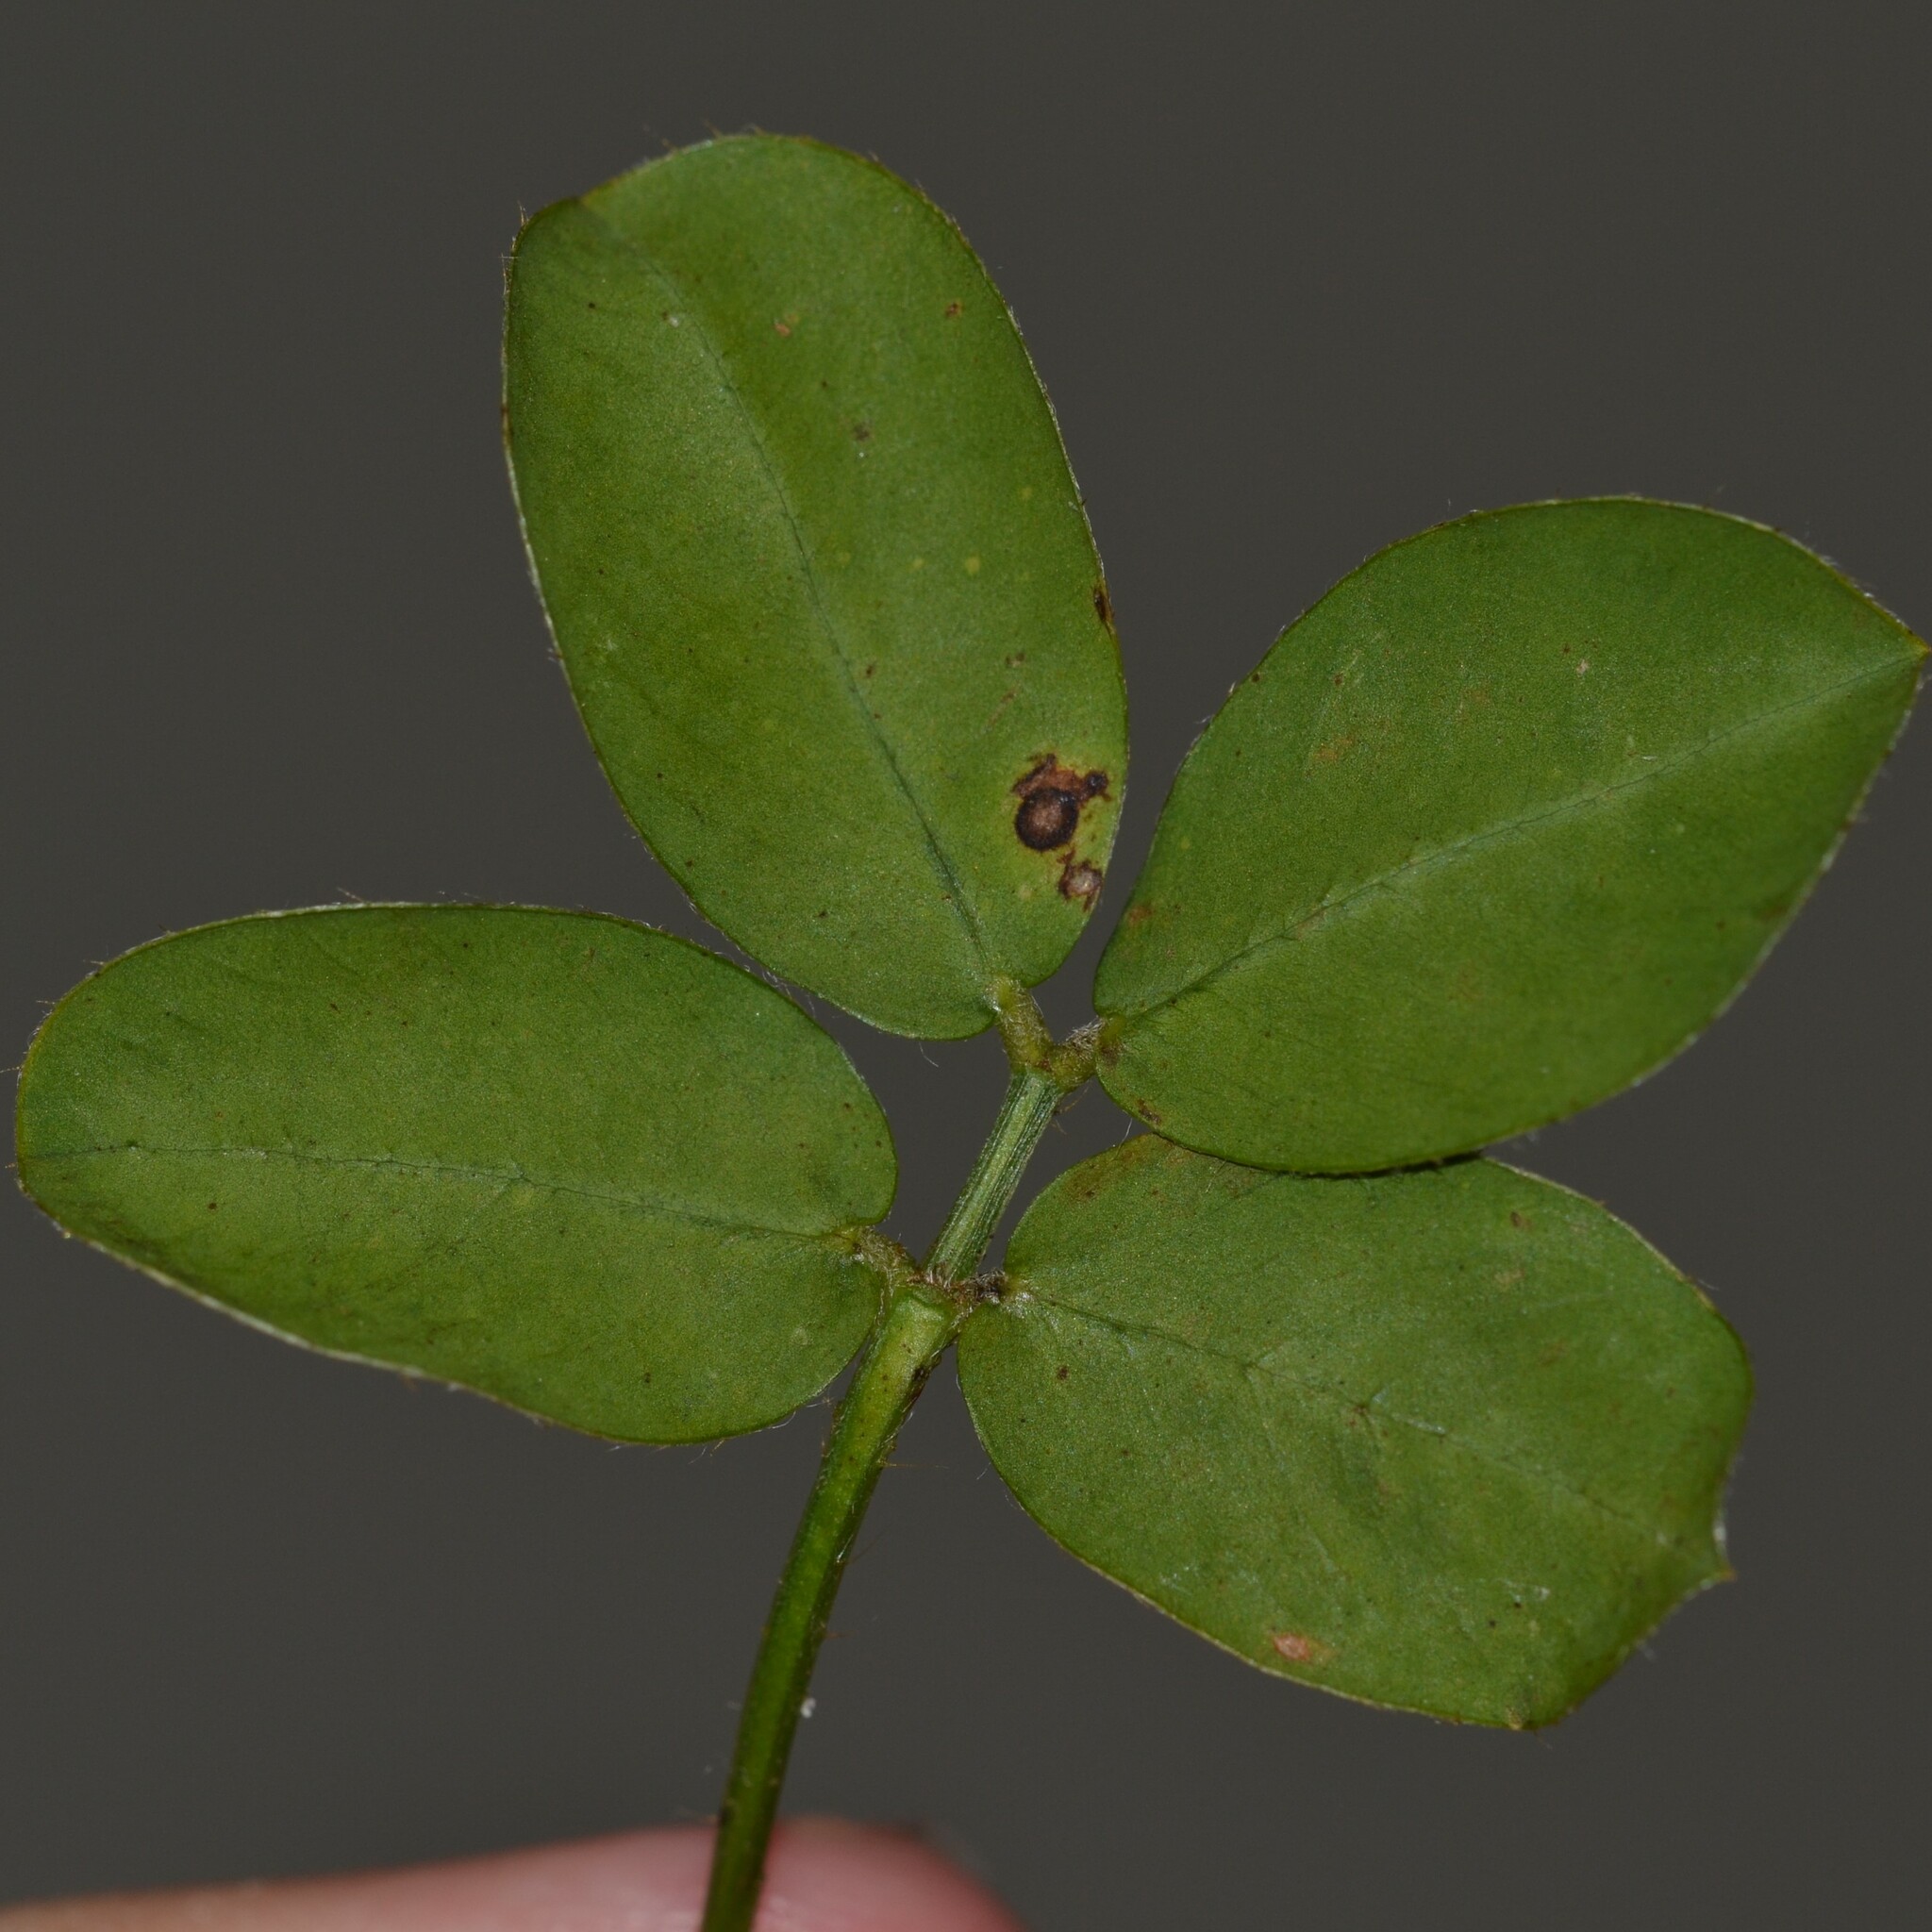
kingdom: Plantae
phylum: Tracheophyta
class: Magnoliopsida
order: Fabales
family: Fabaceae
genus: Arachis
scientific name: Arachis pintoi
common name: Pinto peanut
